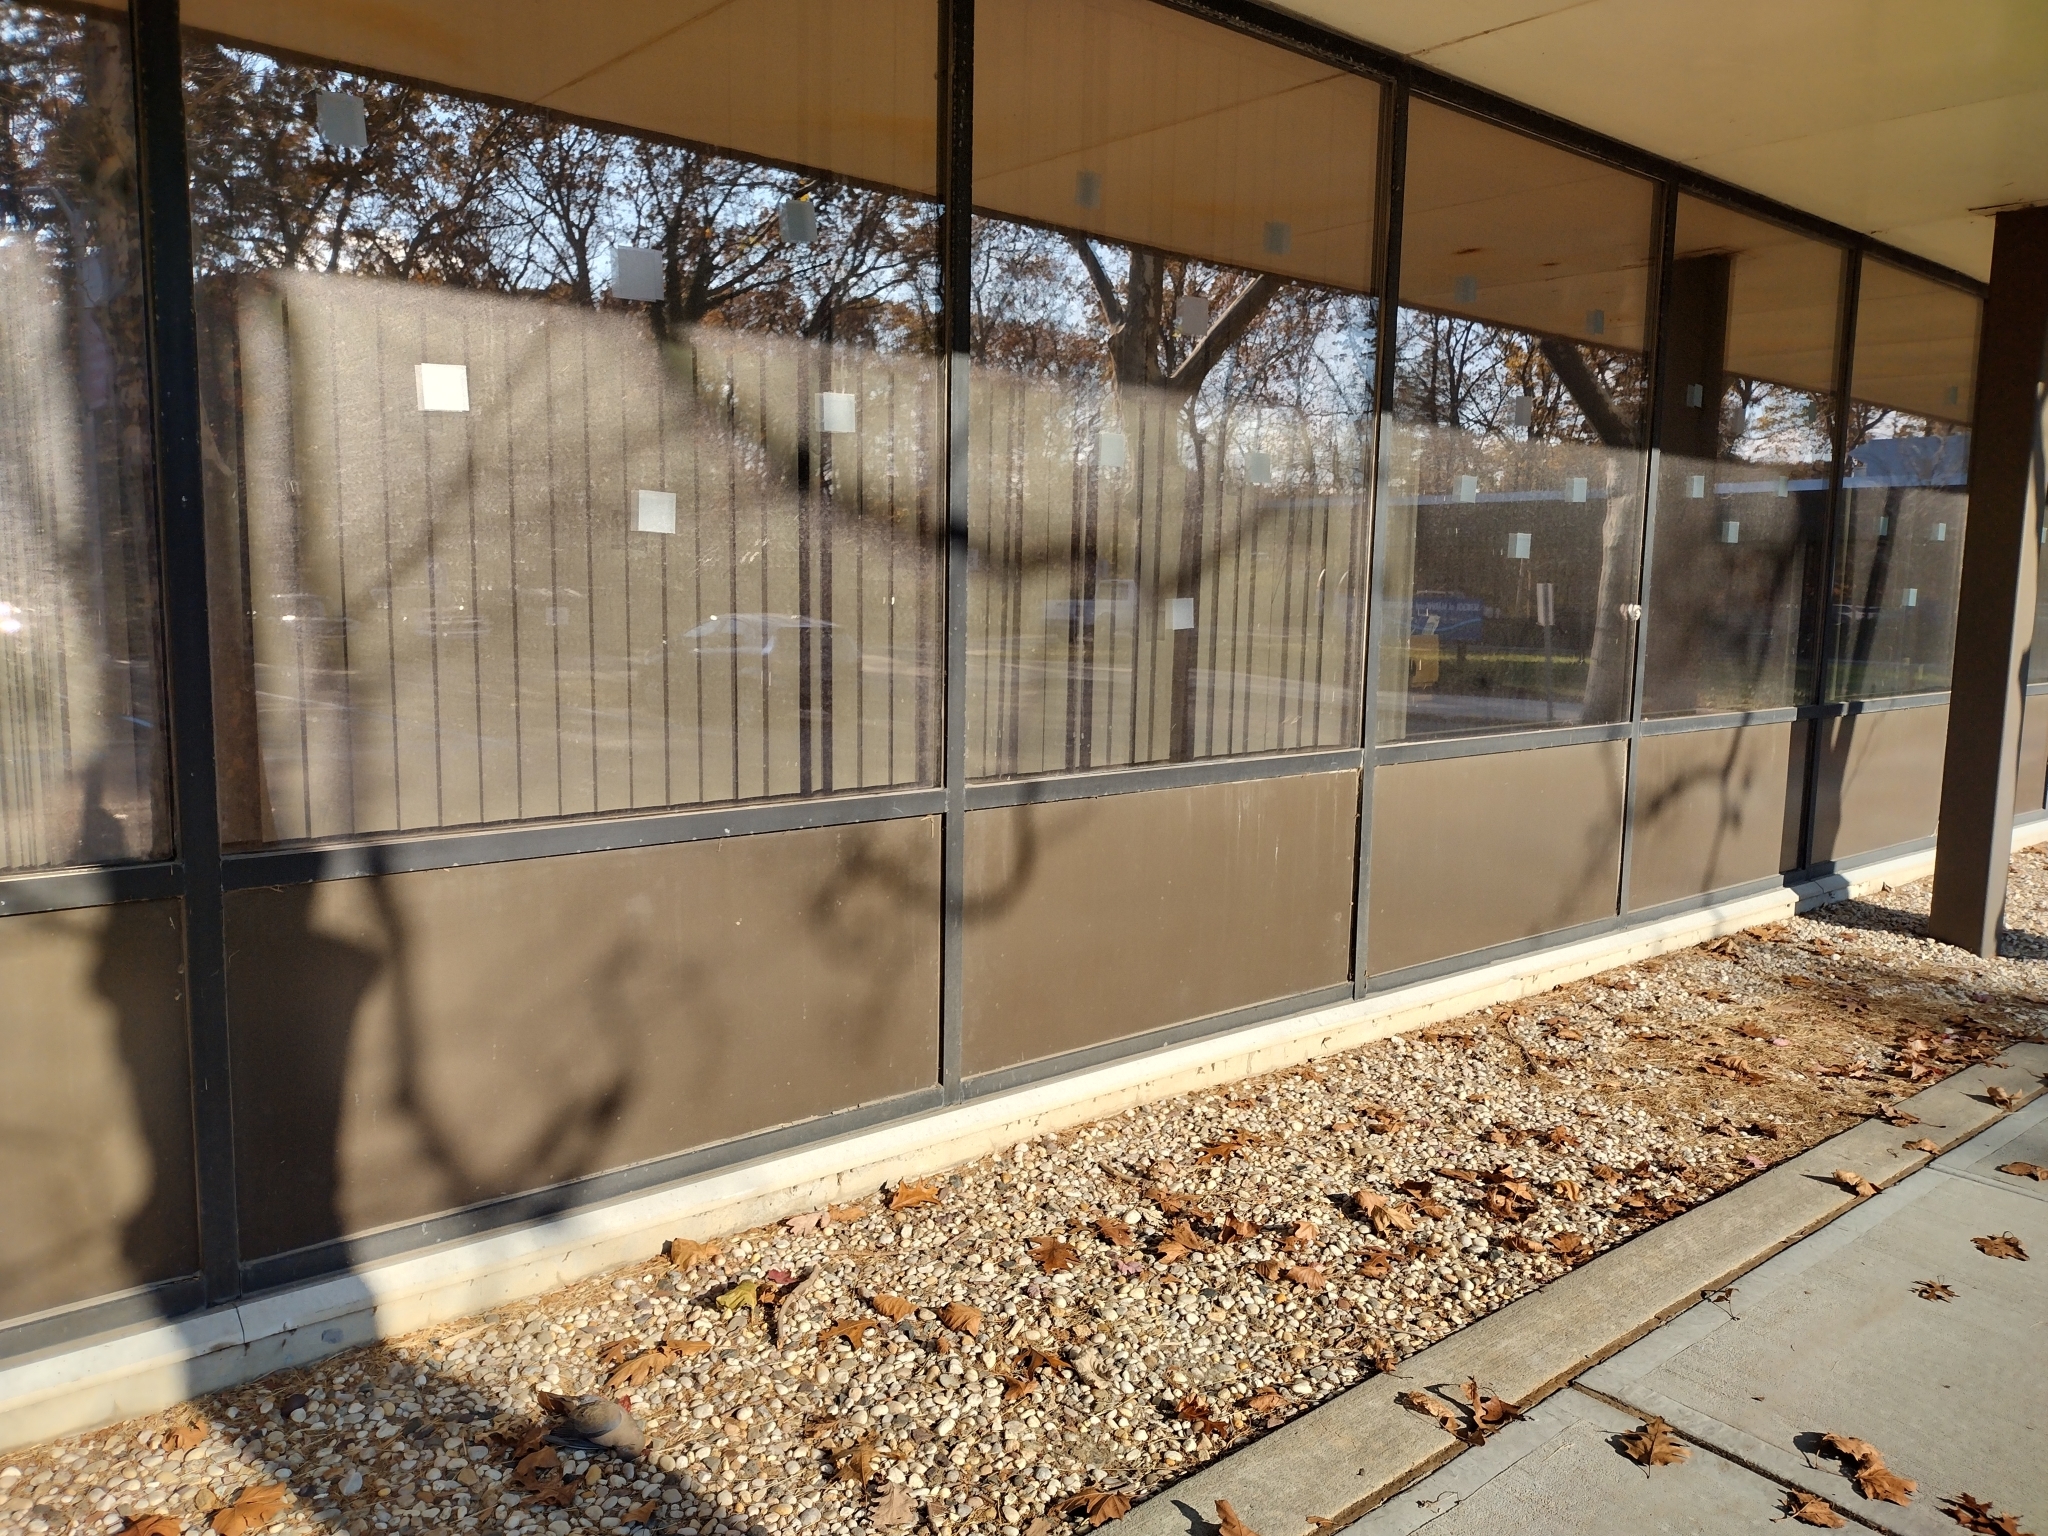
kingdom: Animalia
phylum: Chordata
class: Aves
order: Columbiformes
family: Columbidae
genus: Zenaida
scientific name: Zenaida macroura
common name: Mourning dove
